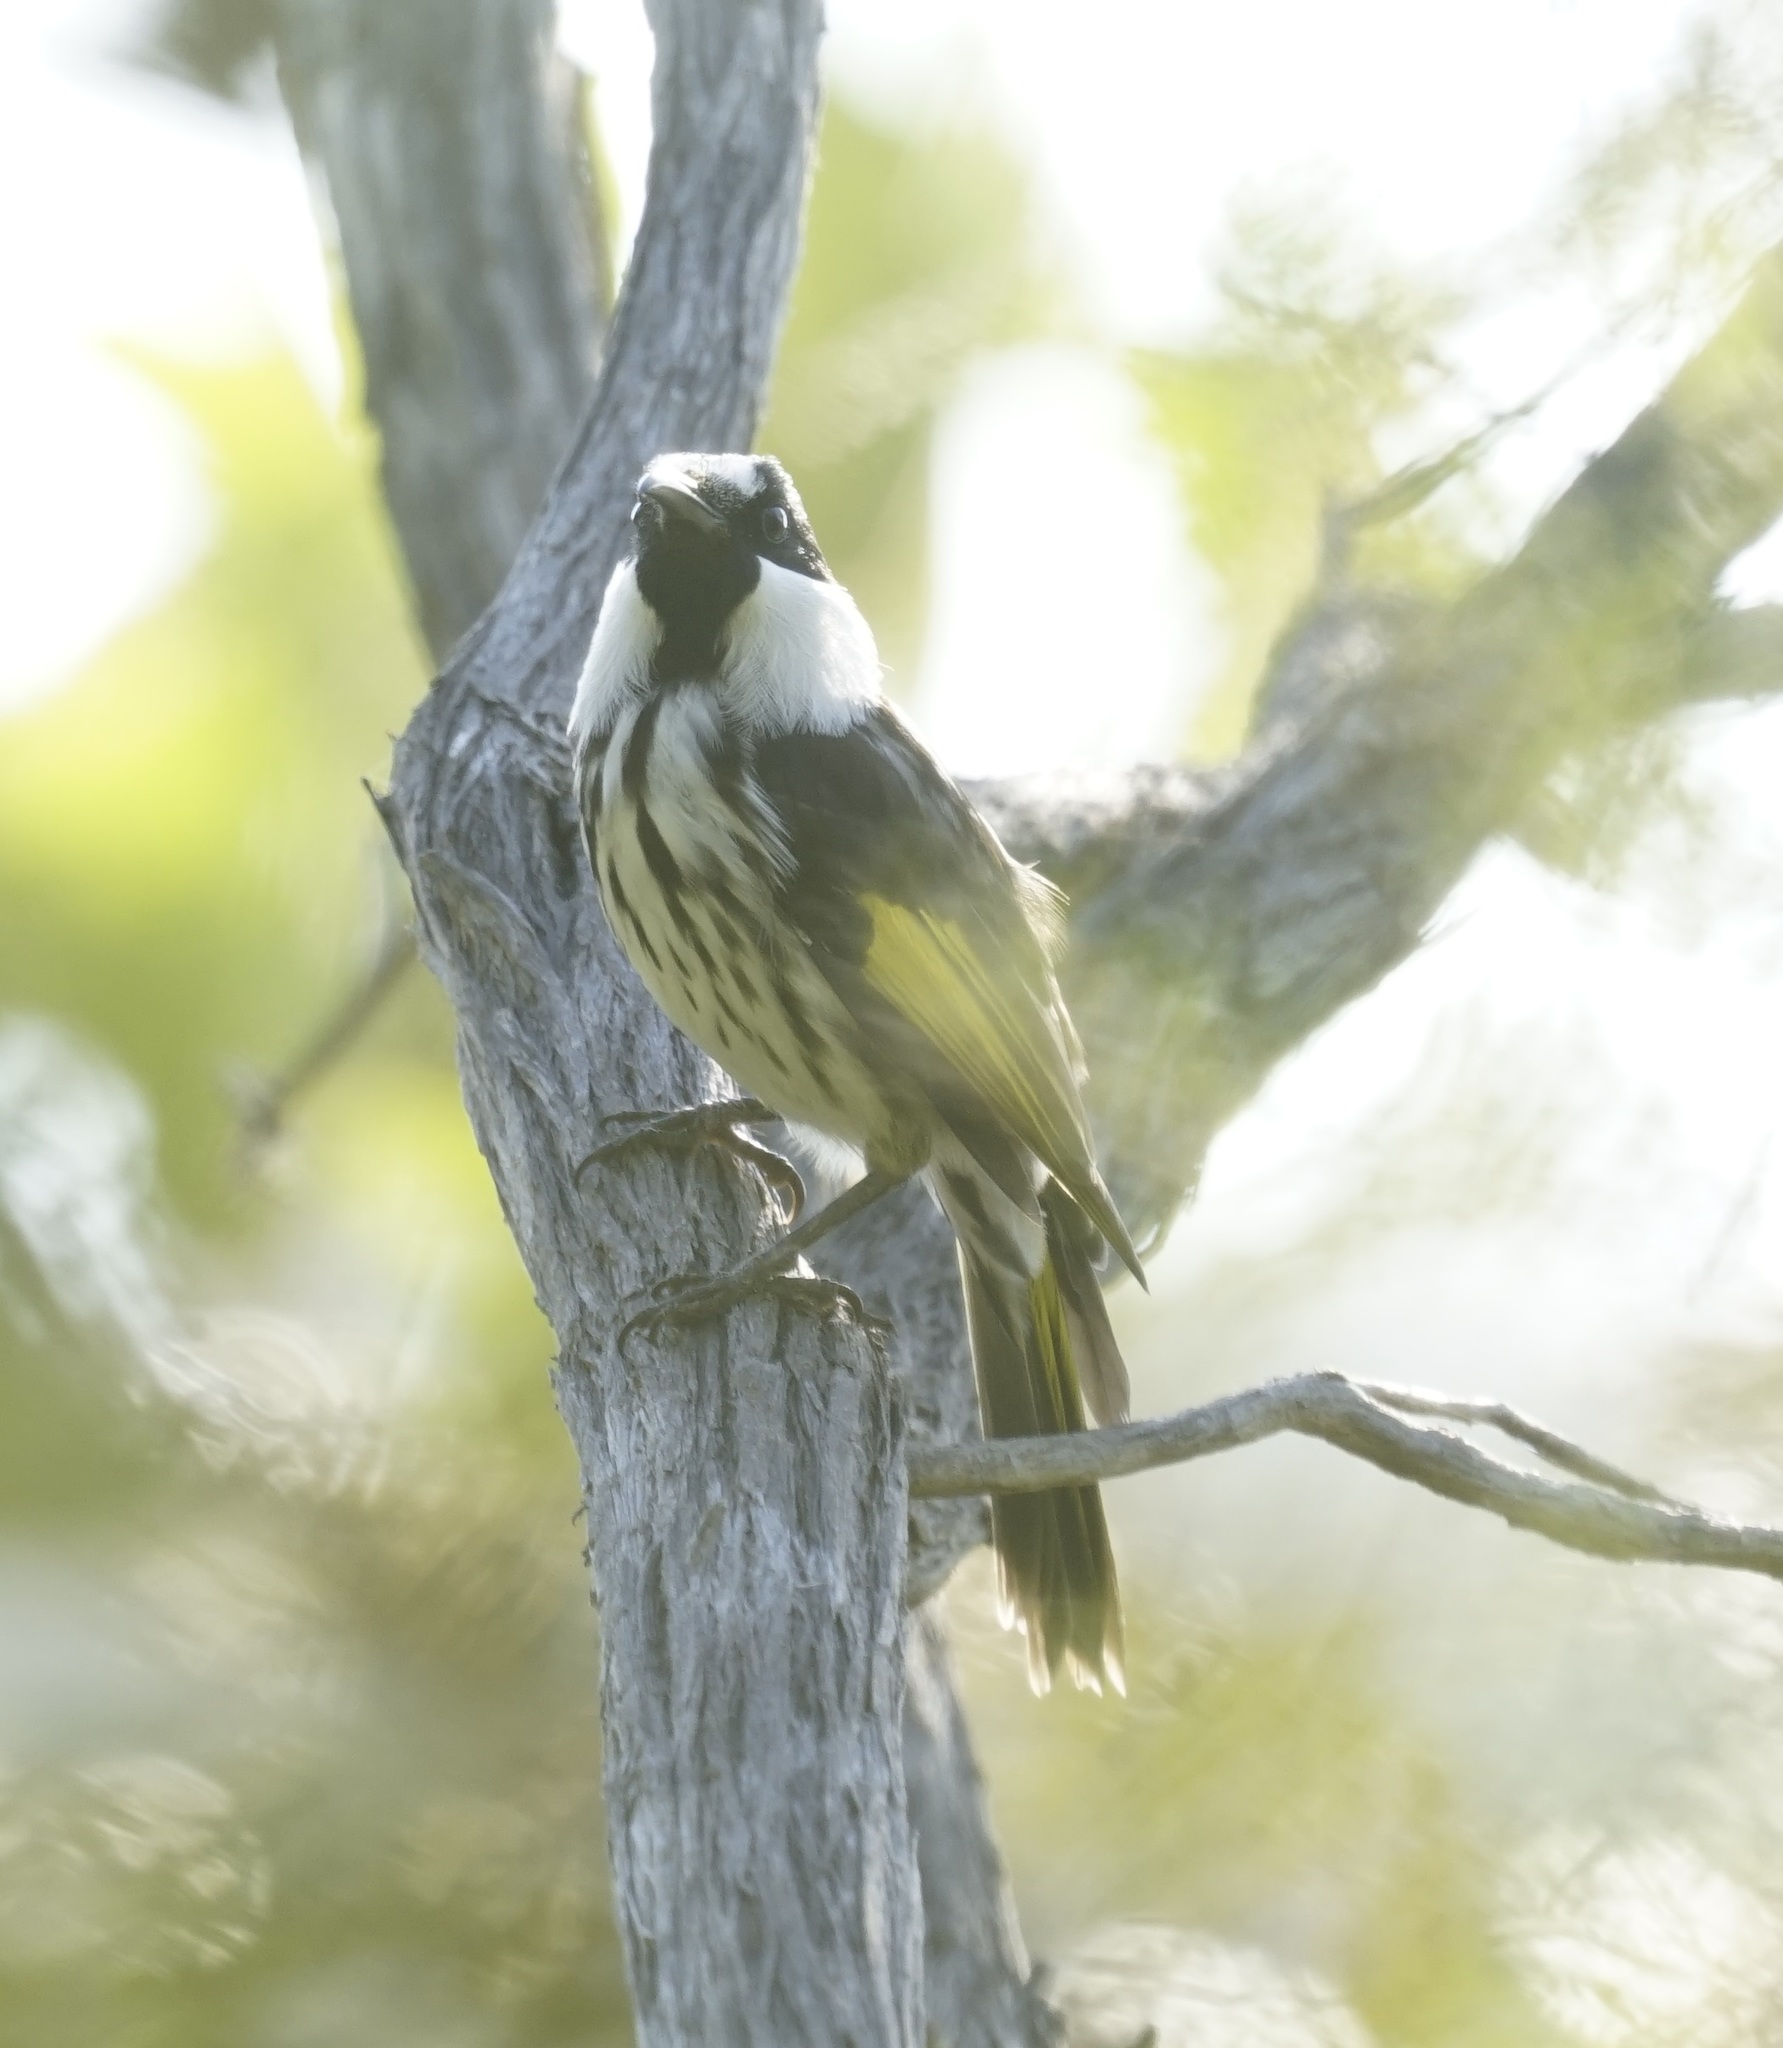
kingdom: Animalia
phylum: Chordata
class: Aves
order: Passeriformes
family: Meliphagidae
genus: Phylidonyris
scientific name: Phylidonyris niger
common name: White-cheeked honeyeater
